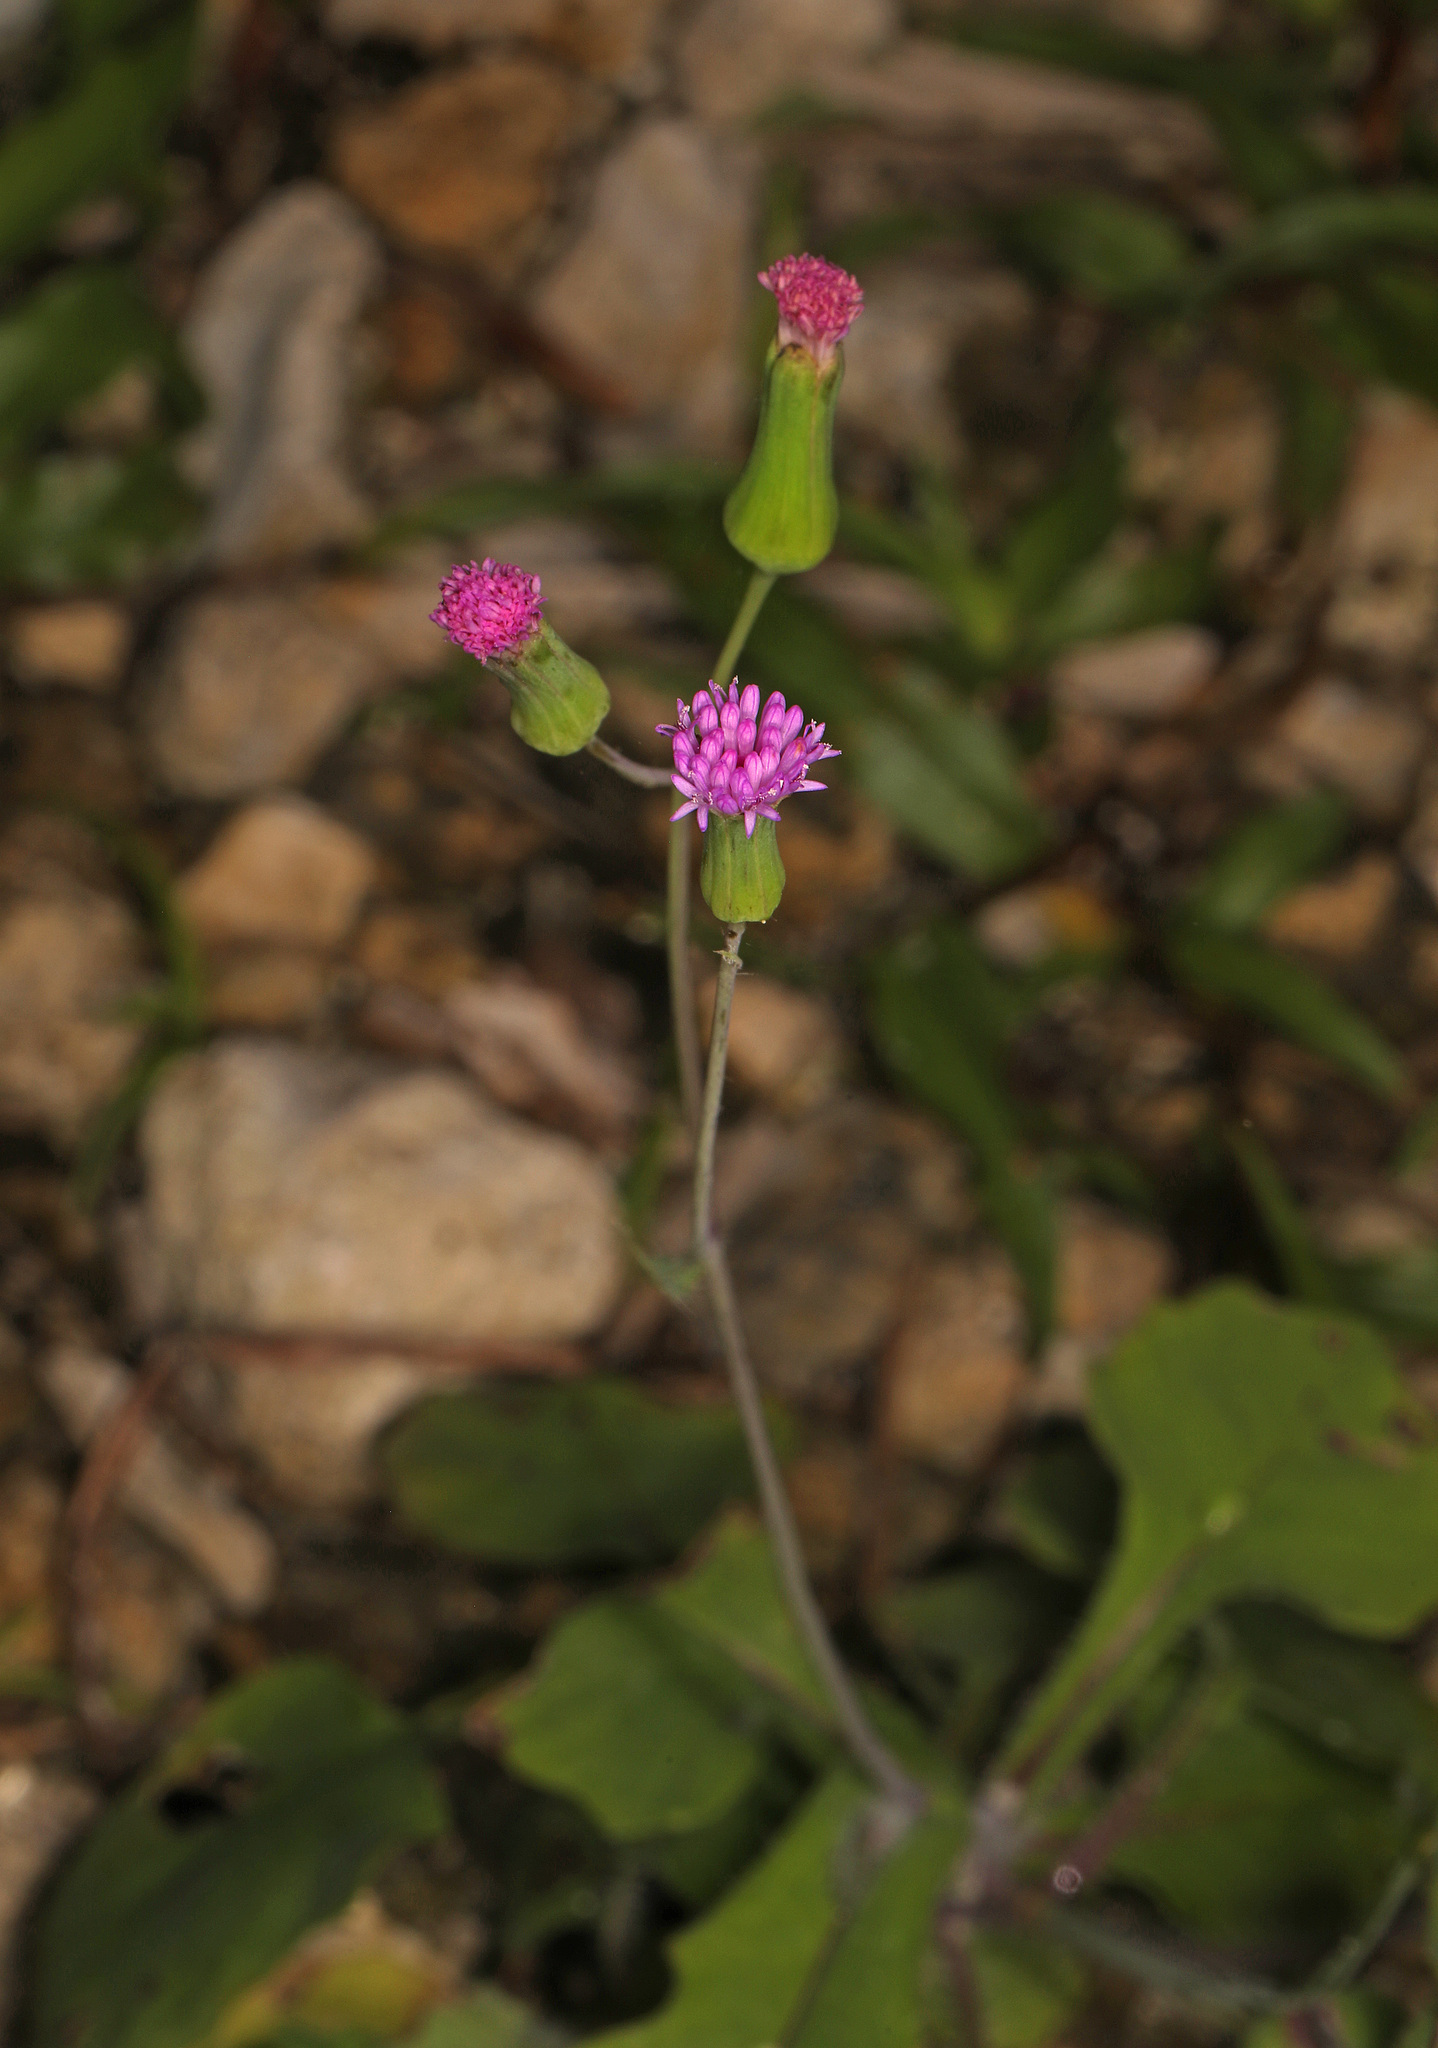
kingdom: Plantae
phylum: Tracheophyta
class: Magnoliopsida
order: Asterales
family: Asteraceae
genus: Emilia
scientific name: Emilia sonchifolia
